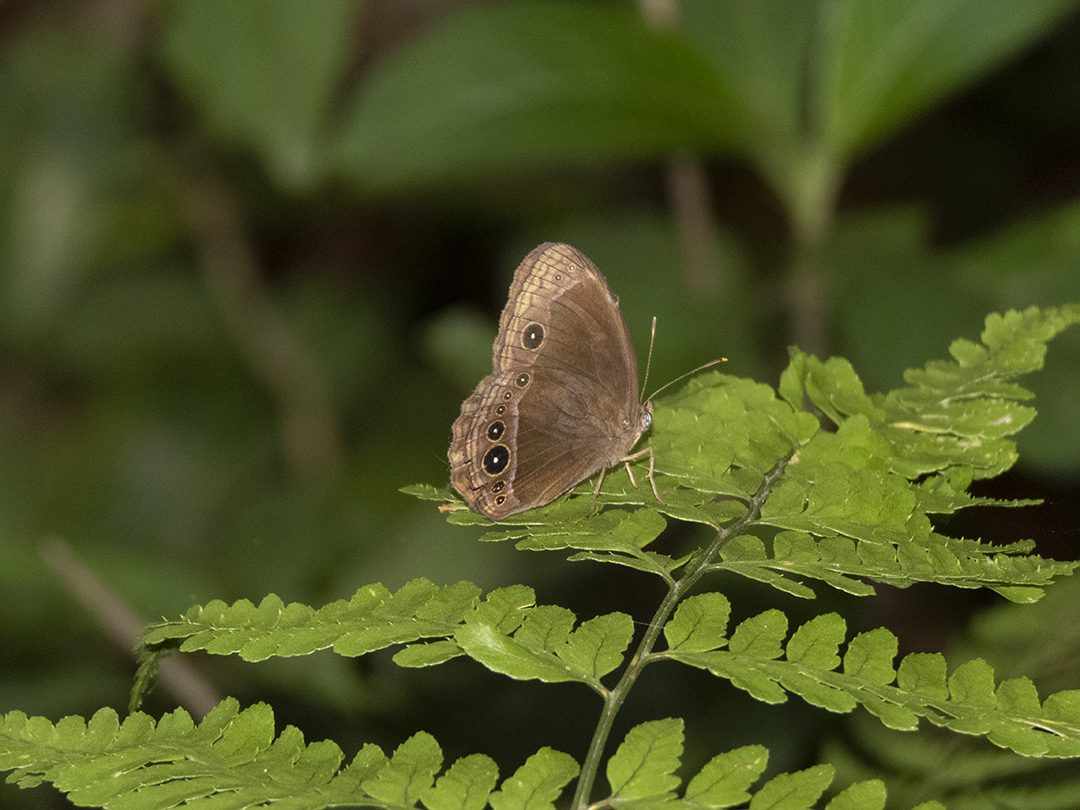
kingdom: Animalia
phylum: Arthropoda
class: Insecta
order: Lepidoptera
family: Nymphalidae
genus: Mycalesis
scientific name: Mycalesis adamsoni
